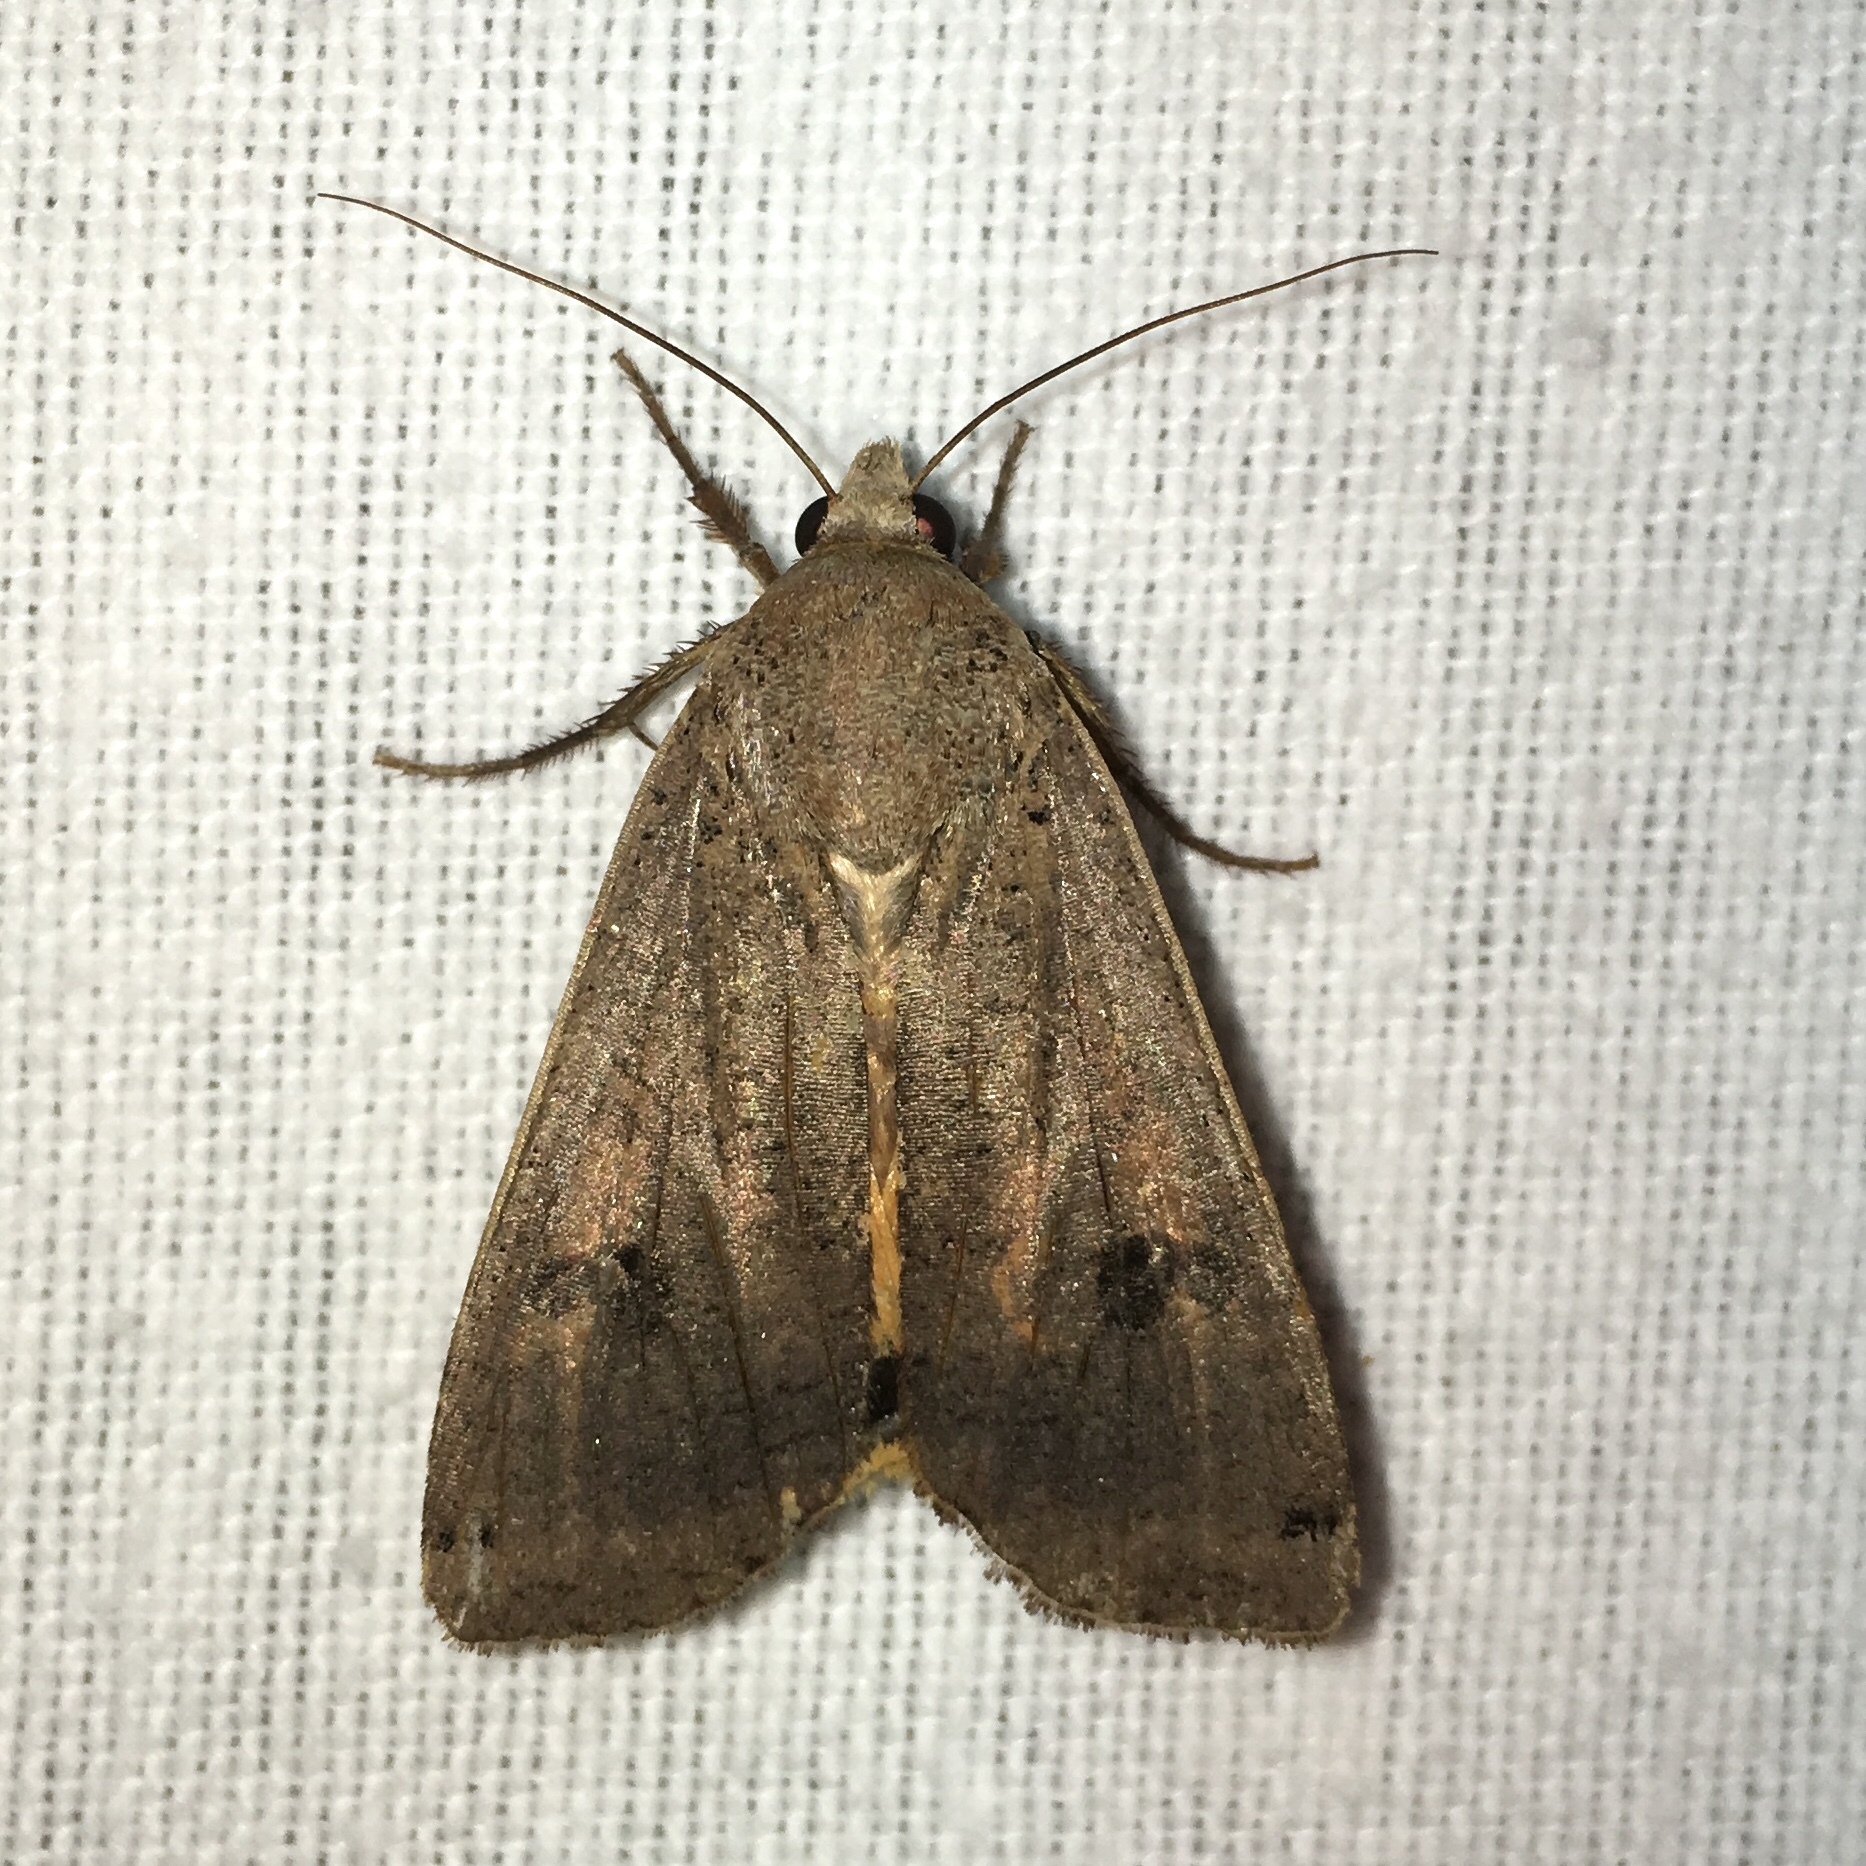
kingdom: Animalia
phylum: Arthropoda
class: Insecta
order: Lepidoptera
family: Noctuidae
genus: Noctua
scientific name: Noctua pronuba
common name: Large yellow underwing
